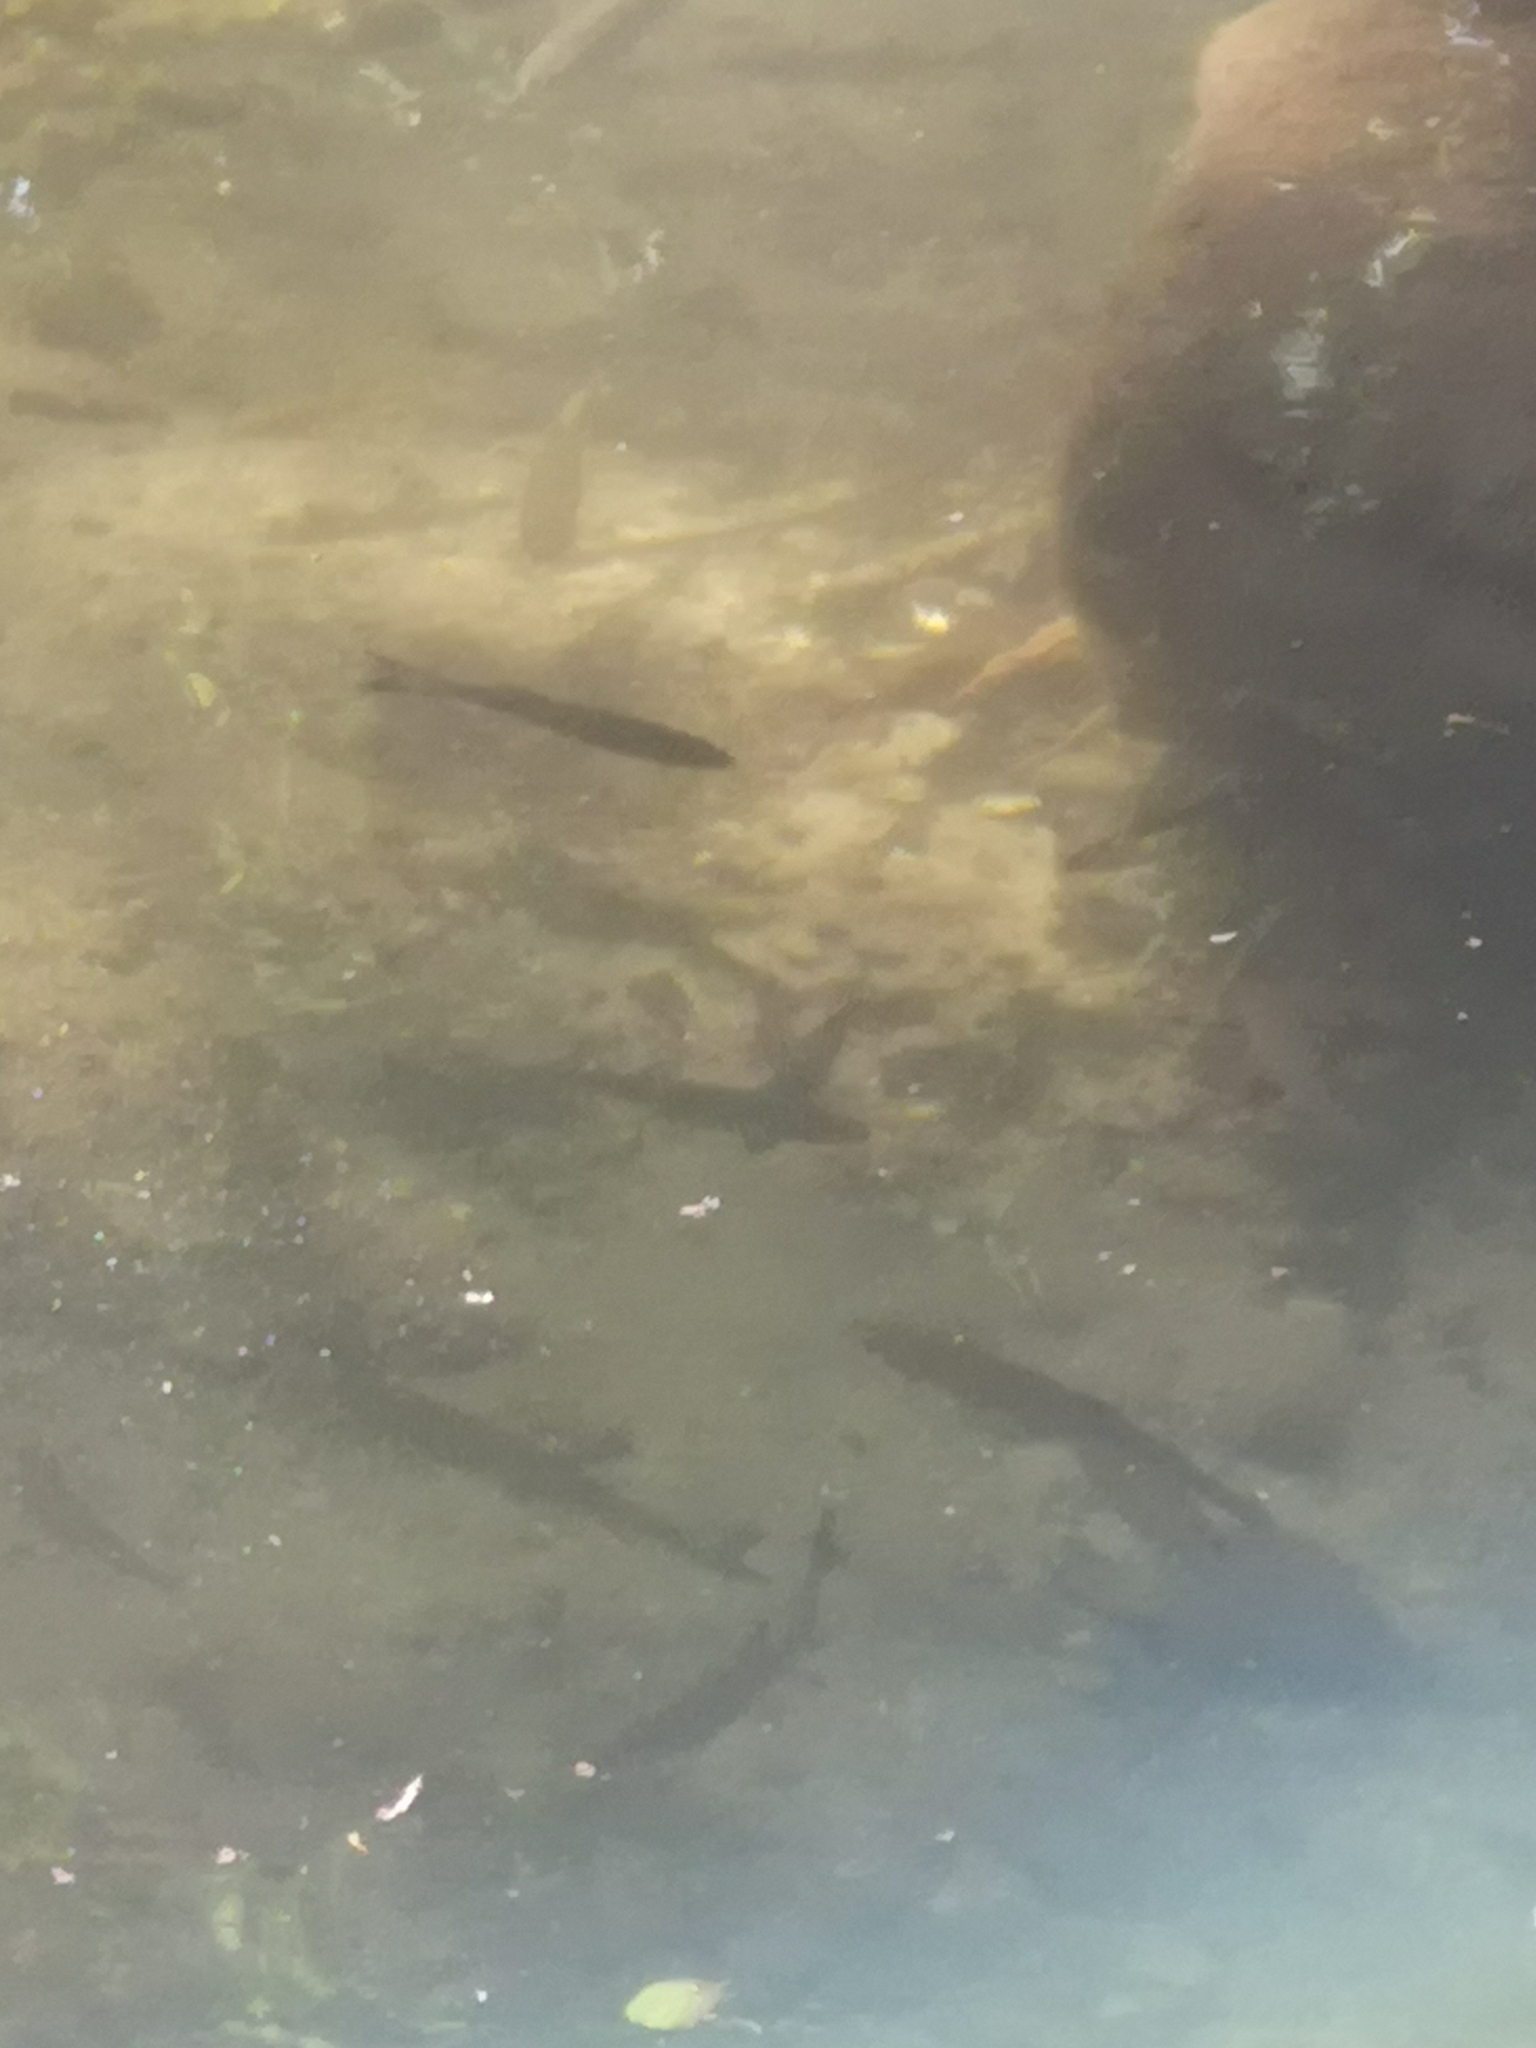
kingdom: Animalia
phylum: Chordata
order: Cypriniformes
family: Cyprinidae
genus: Squalius
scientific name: Squalius cephalus
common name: Chub
